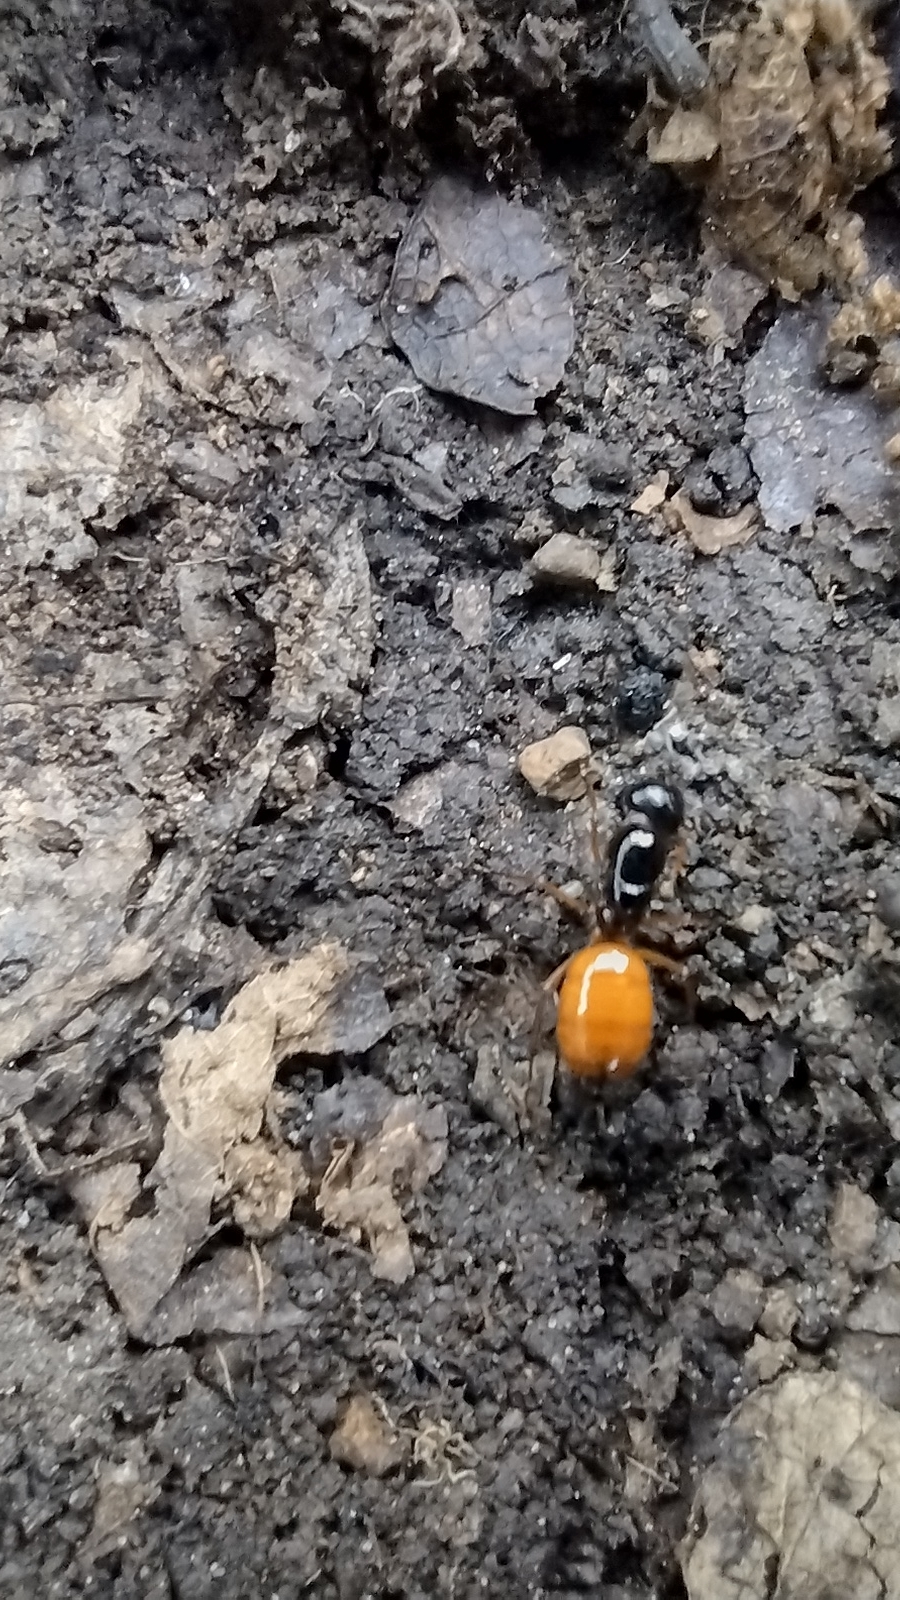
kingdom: Animalia
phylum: Arthropoda
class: Insecta
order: Hymenoptera
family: Formicidae
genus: Camponotus
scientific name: Camponotus sansabeanus
